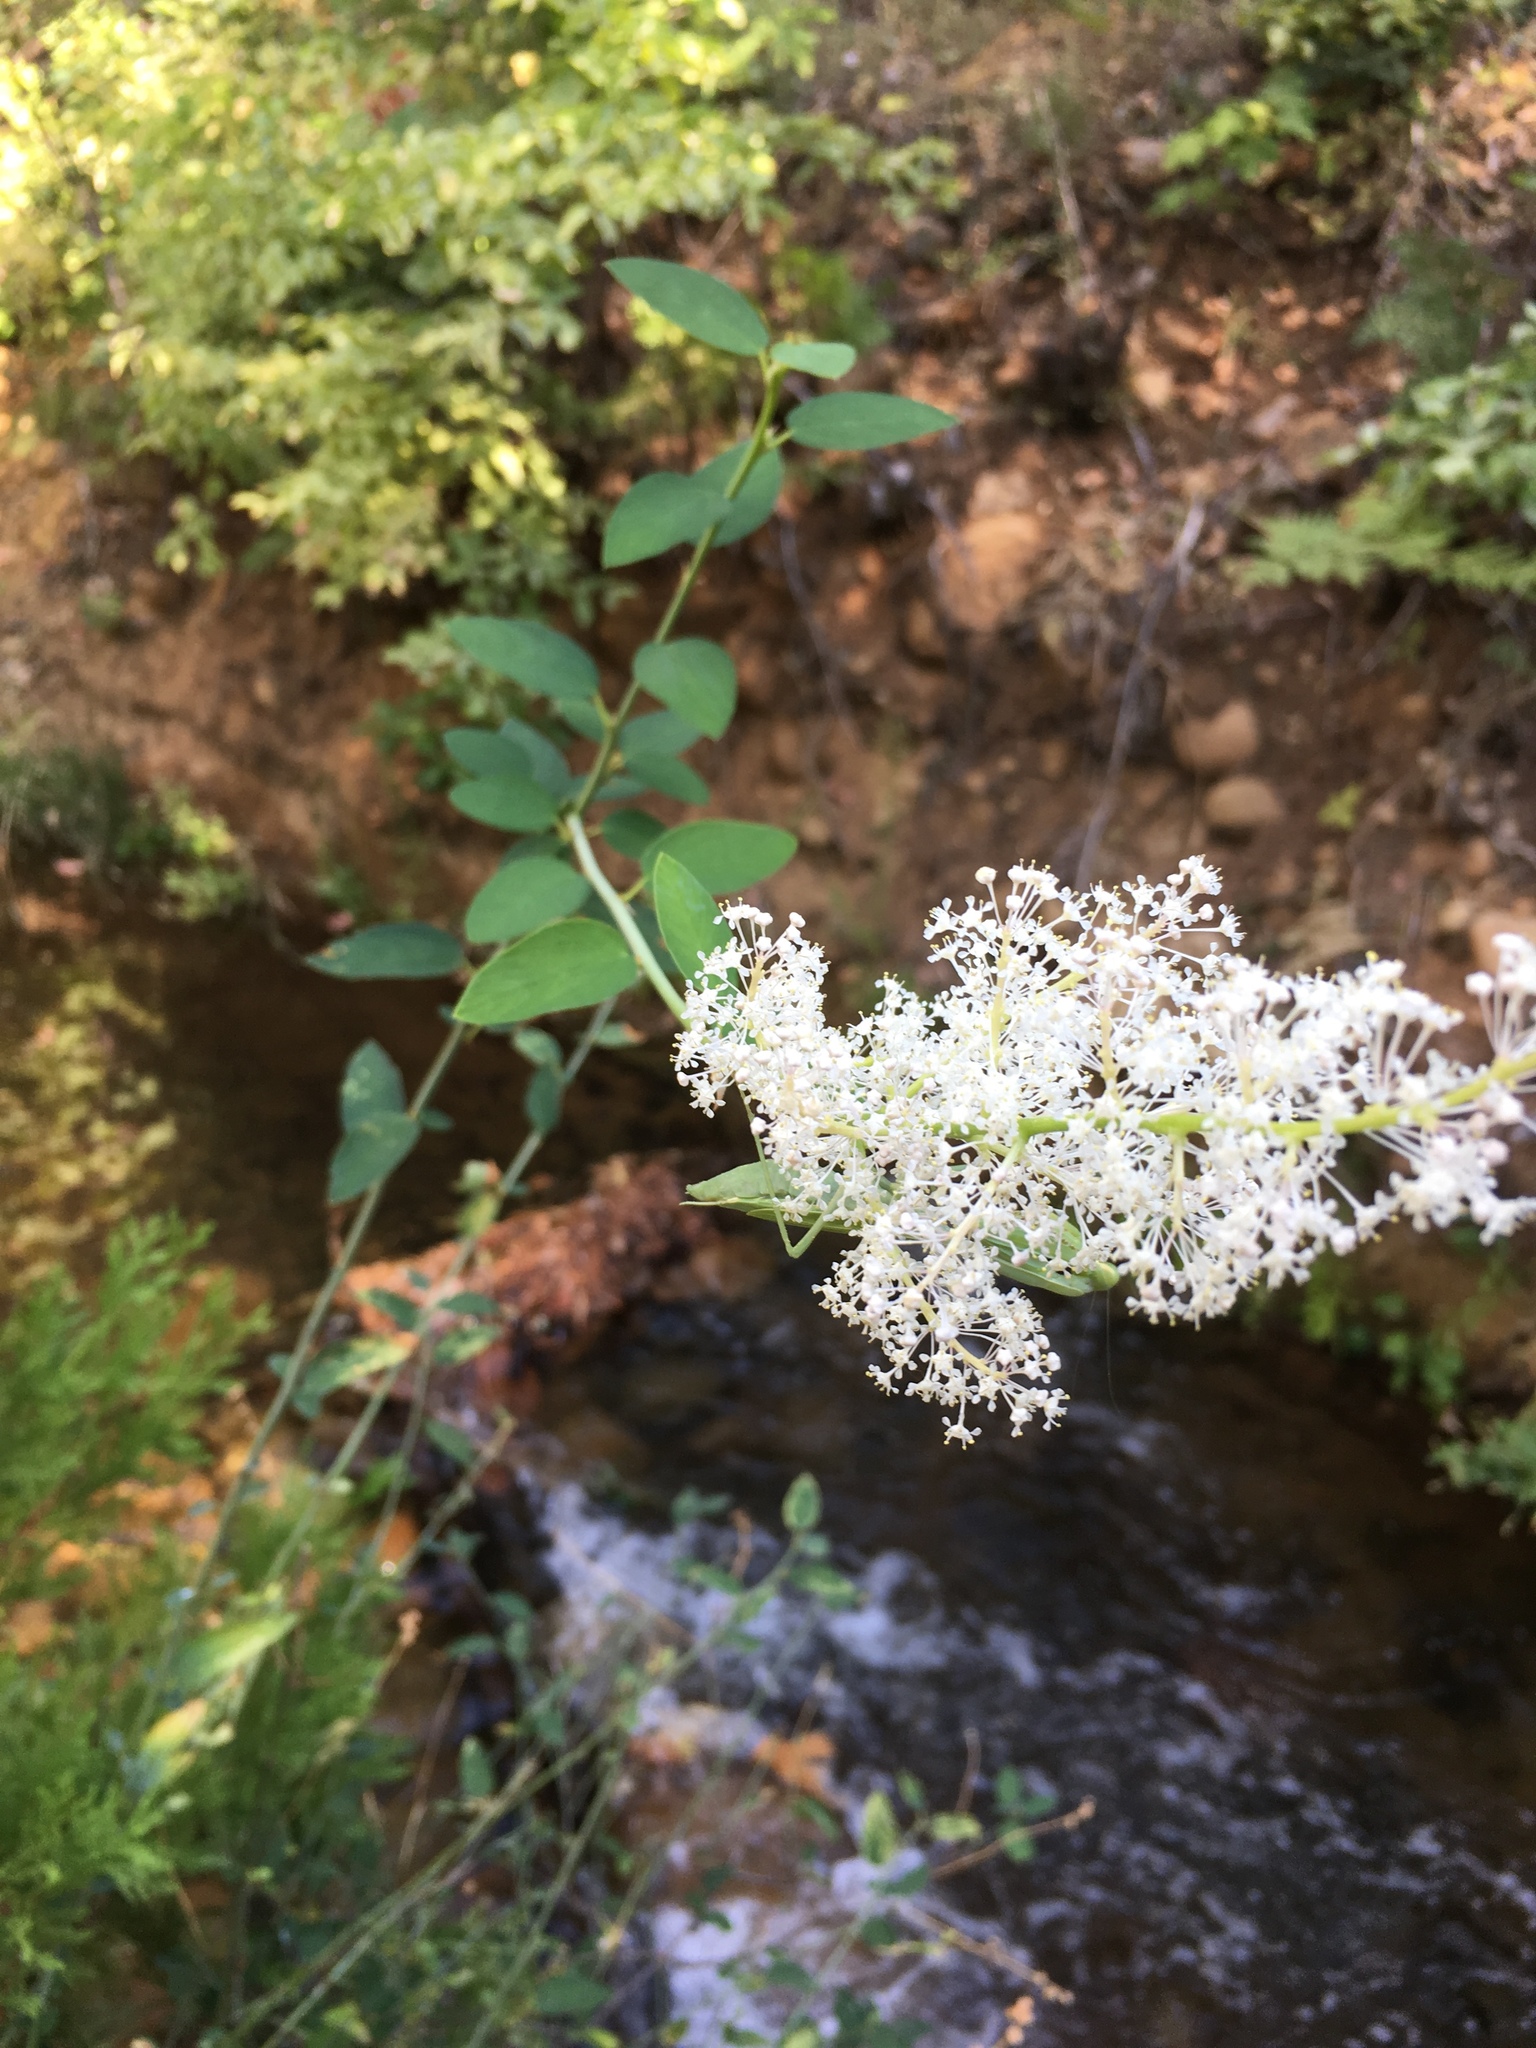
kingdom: Plantae
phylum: Tracheophyta
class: Magnoliopsida
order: Rosales
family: Rhamnaceae
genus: Ceanothus
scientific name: Ceanothus integerrimus
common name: Deerbrush ceanothus
